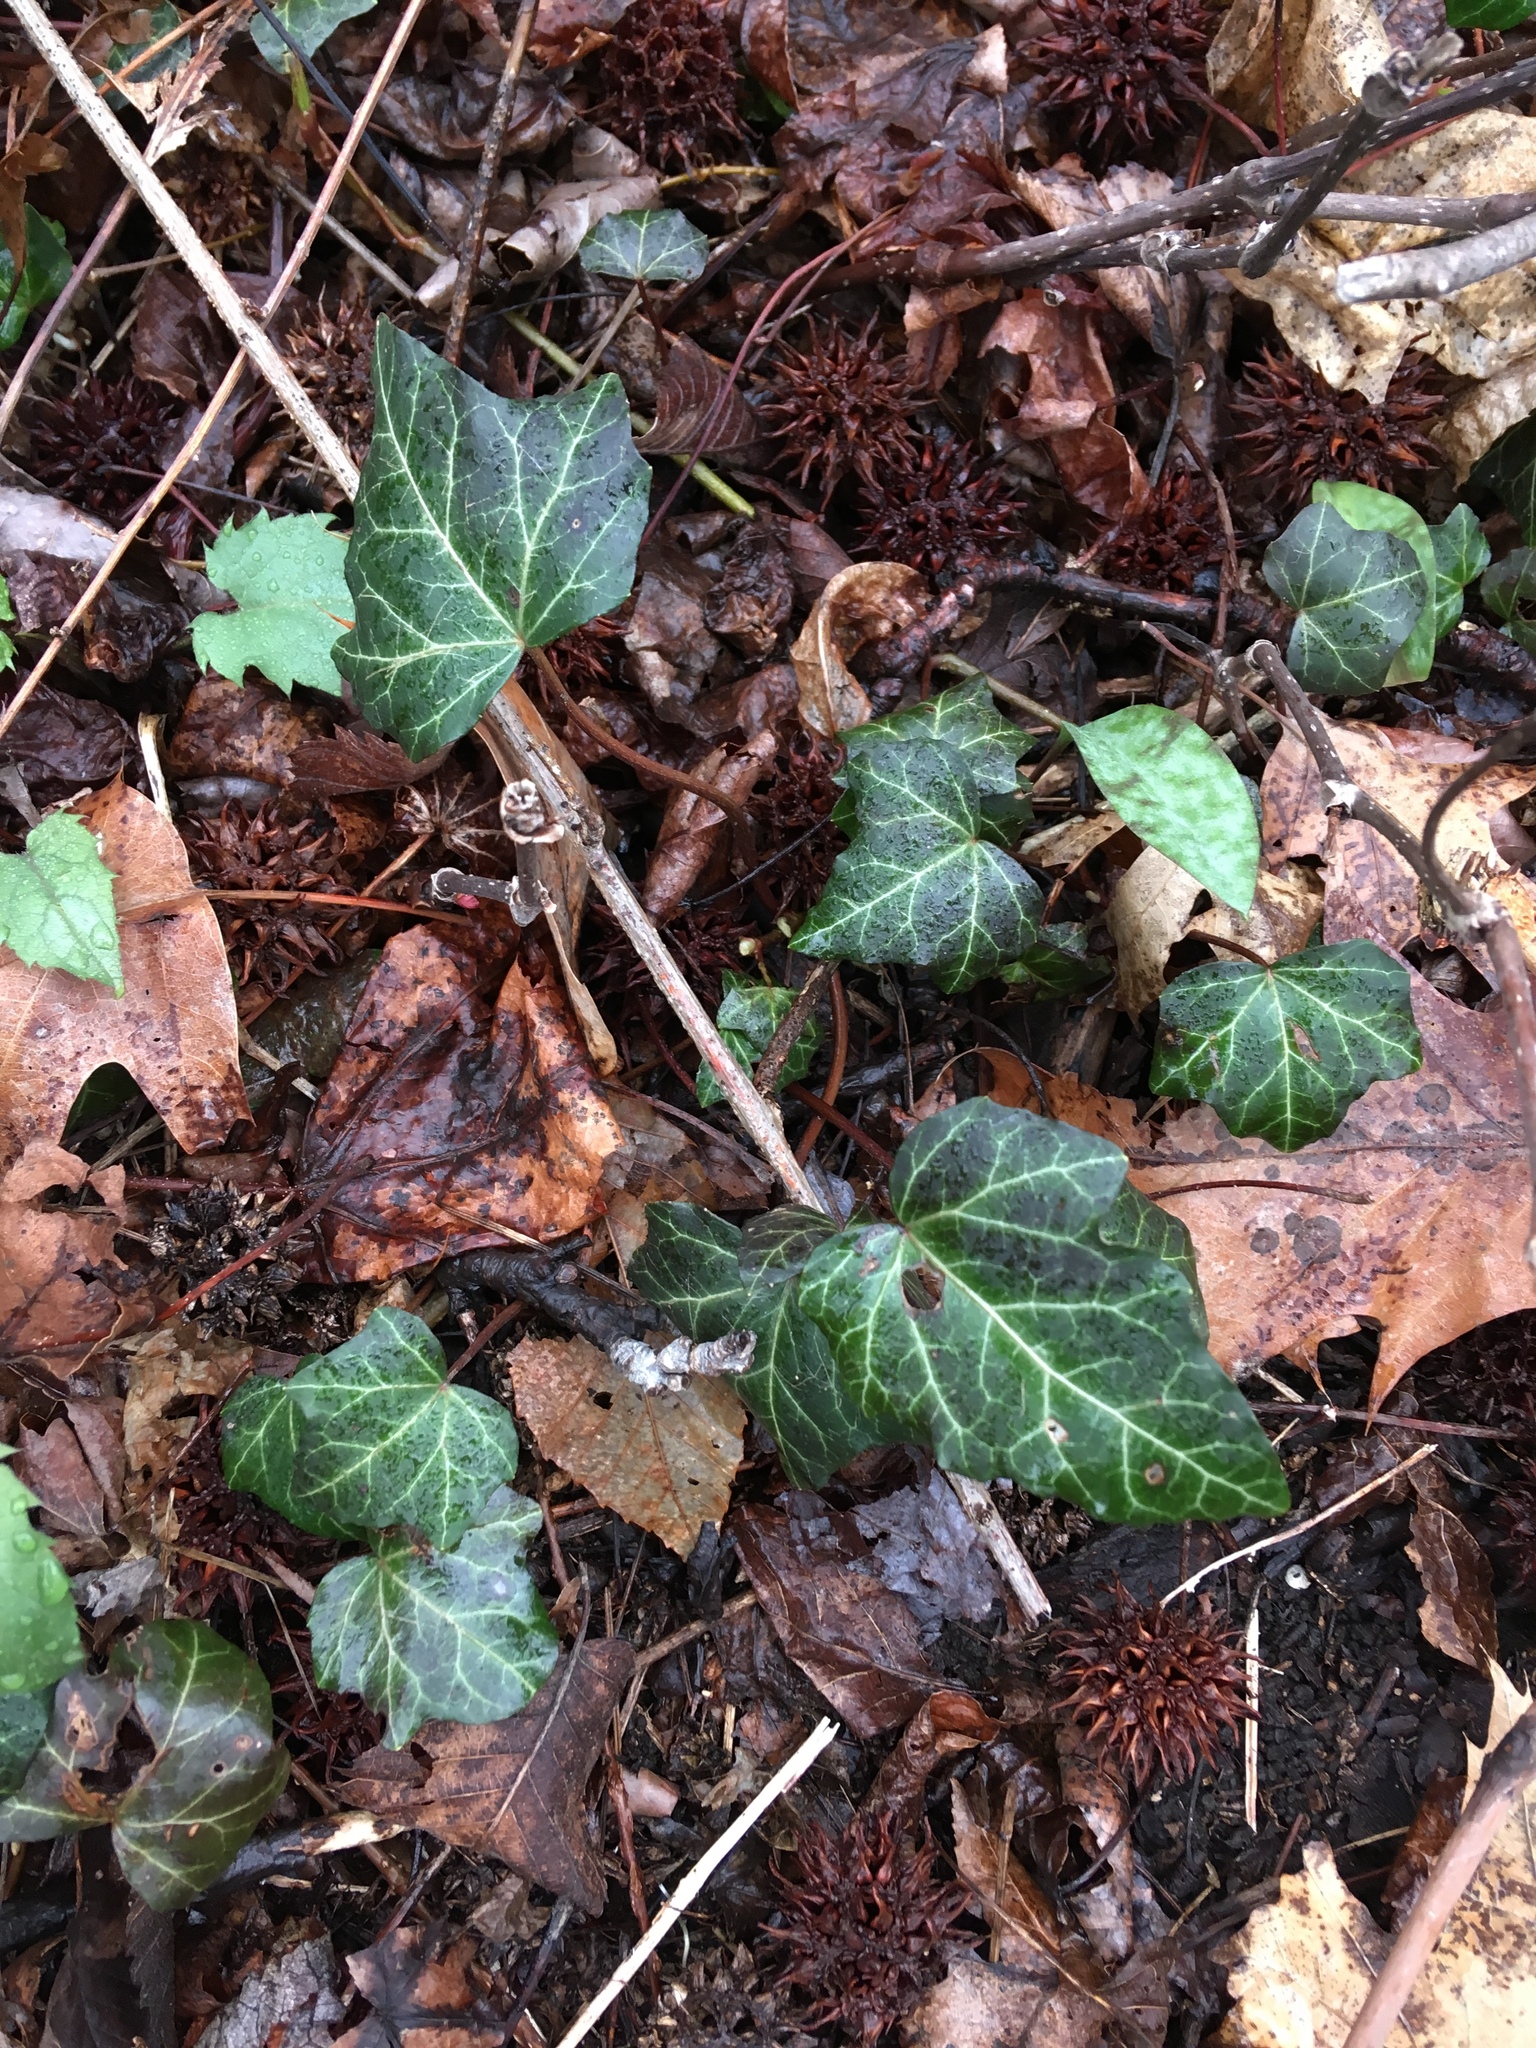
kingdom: Plantae
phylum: Tracheophyta
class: Magnoliopsida
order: Apiales
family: Araliaceae
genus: Hedera
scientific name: Hedera helix
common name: Ivy
